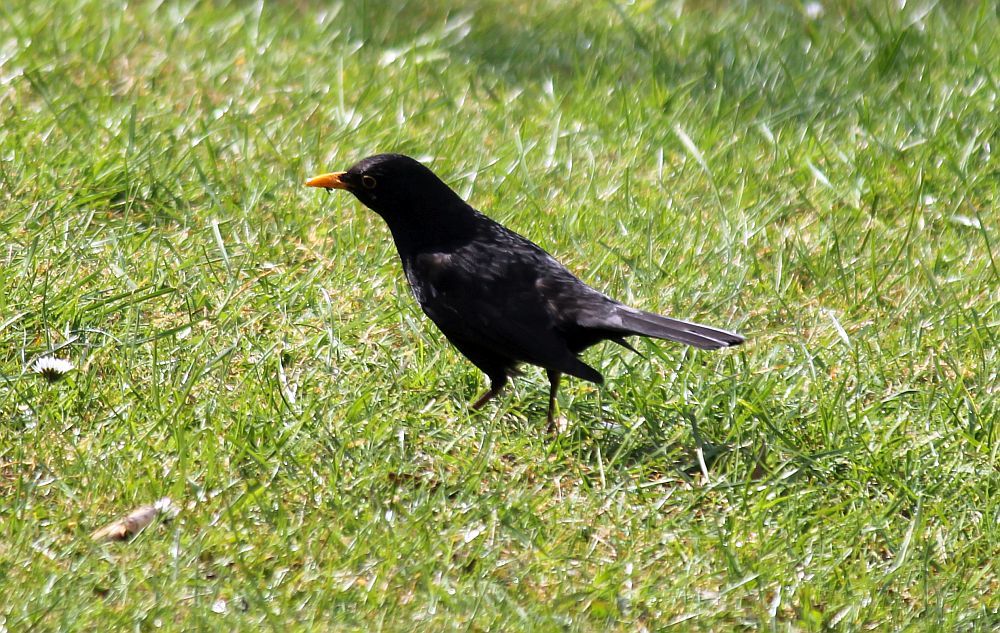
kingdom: Animalia
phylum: Chordata
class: Aves
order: Passeriformes
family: Turdidae
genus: Turdus
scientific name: Turdus merula
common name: Common blackbird
